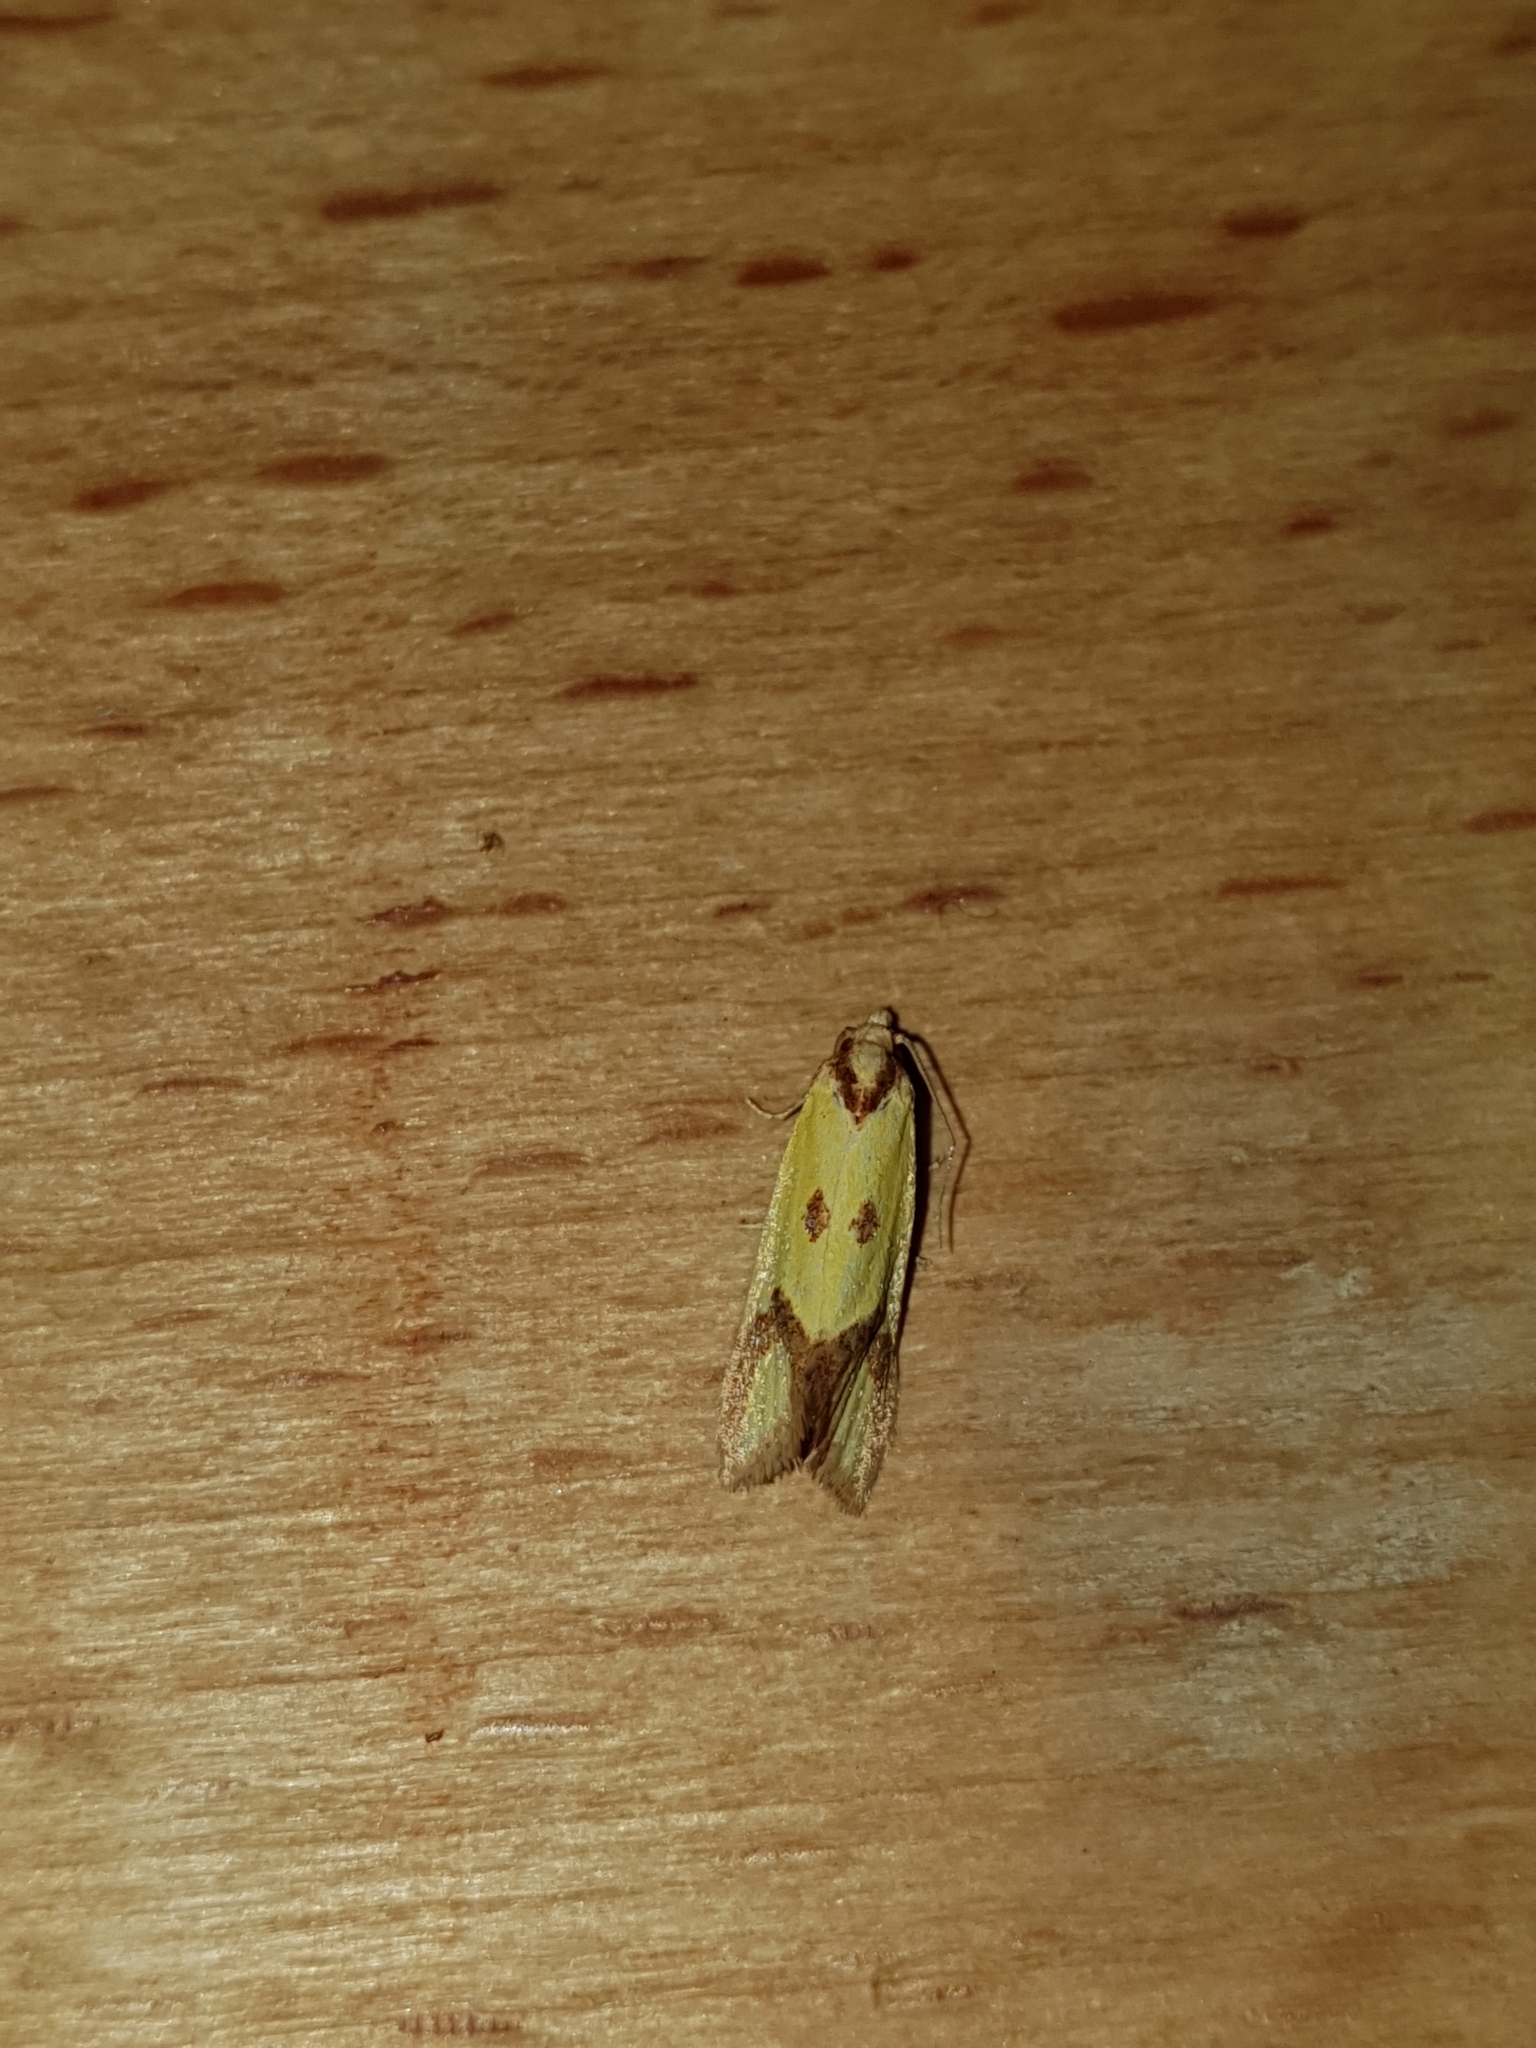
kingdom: Animalia
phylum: Arthropoda
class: Insecta
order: Lepidoptera
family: Tortricidae
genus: Agapeta
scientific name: Agapeta zoegana
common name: Sulfur knapweed root moth
